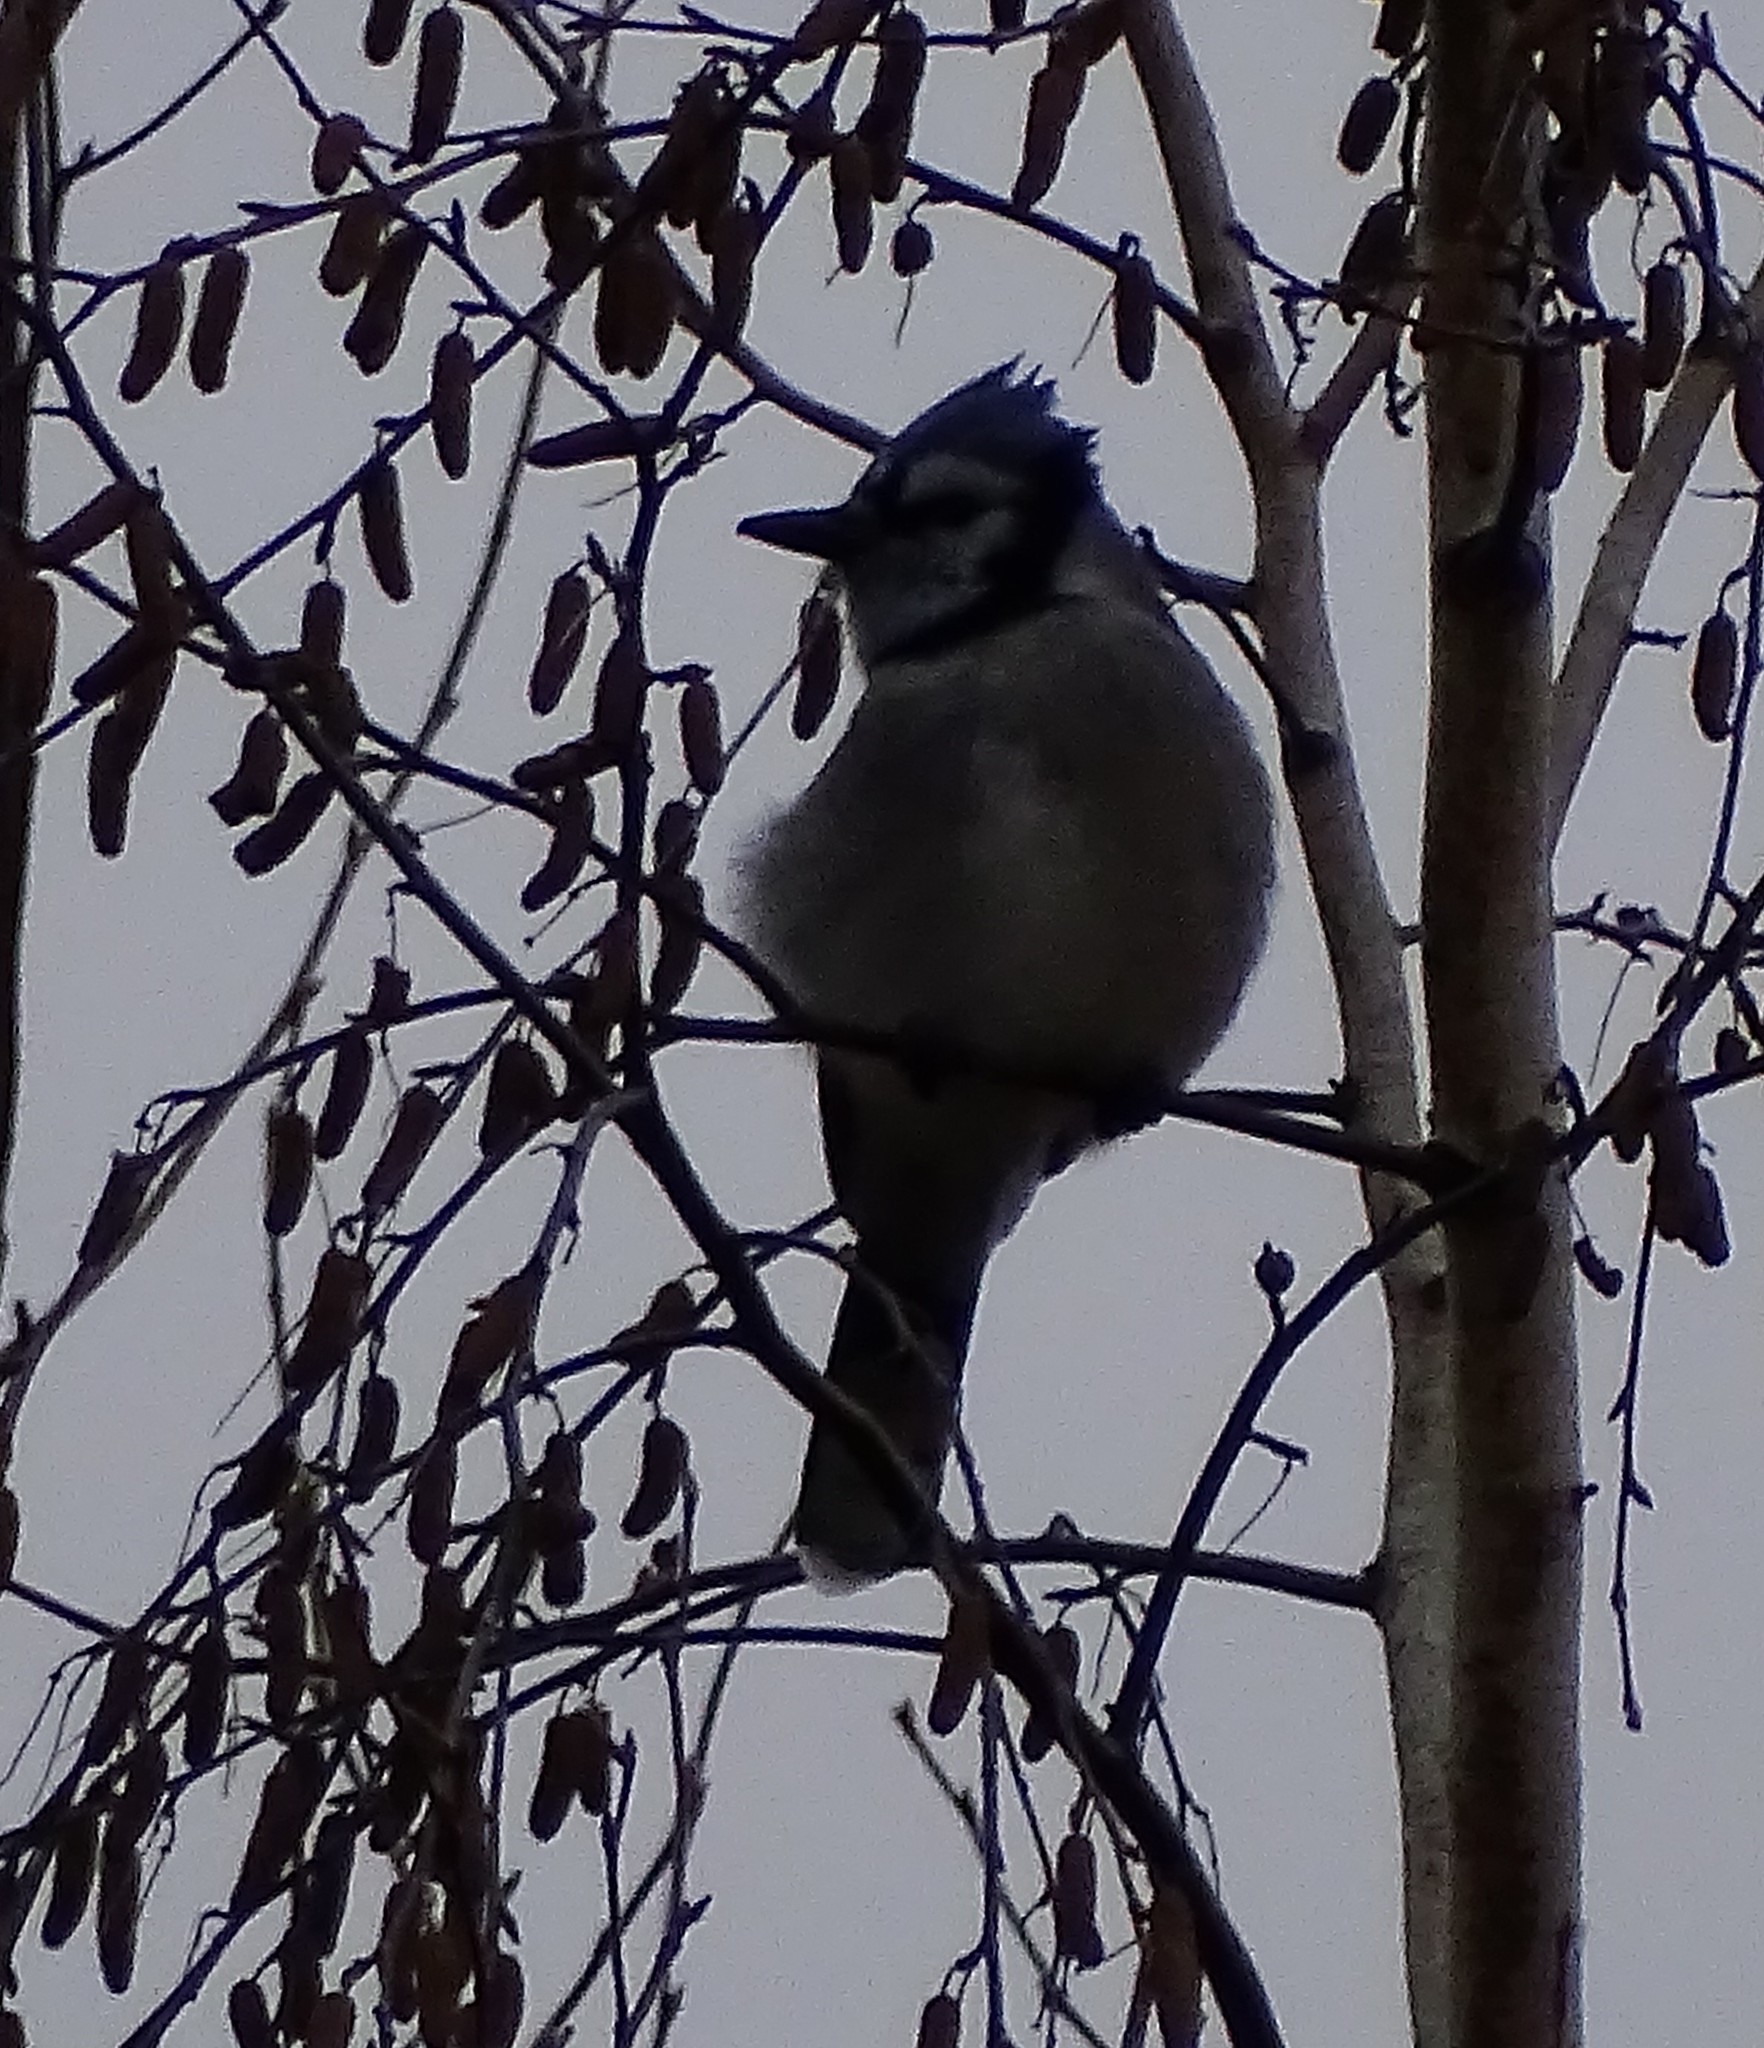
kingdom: Animalia
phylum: Chordata
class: Aves
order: Passeriformes
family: Corvidae
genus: Cyanocitta
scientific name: Cyanocitta cristata
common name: Blue jay
